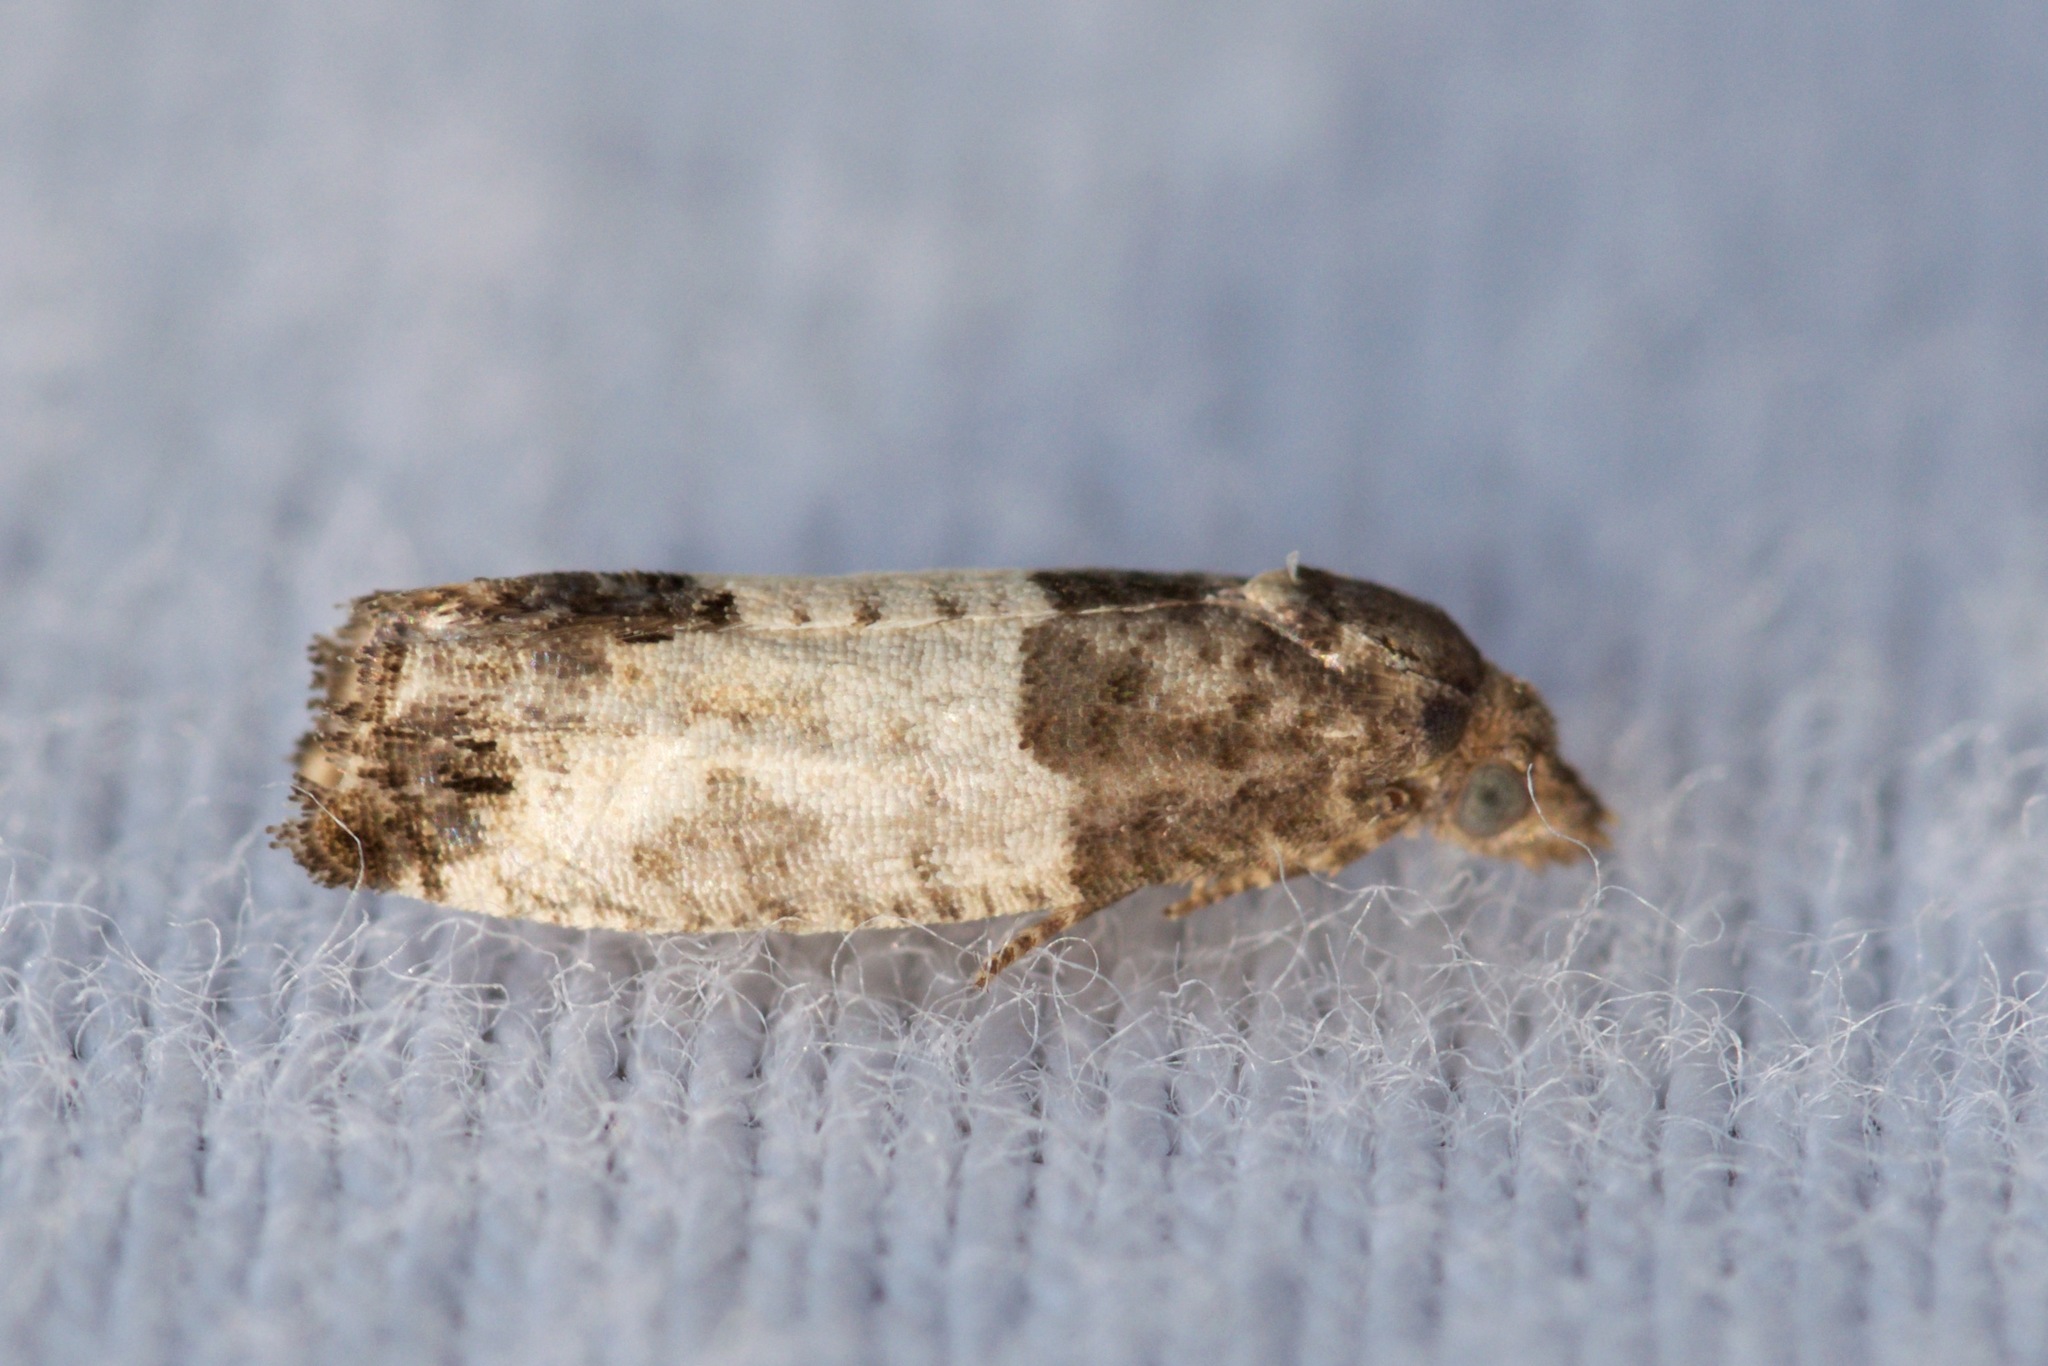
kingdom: Animalia
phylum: Arthropoda
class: Insecta
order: Lepidoptera
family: Tortricidae
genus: Spilonota
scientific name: Spilonota ocellana
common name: Bud moth
